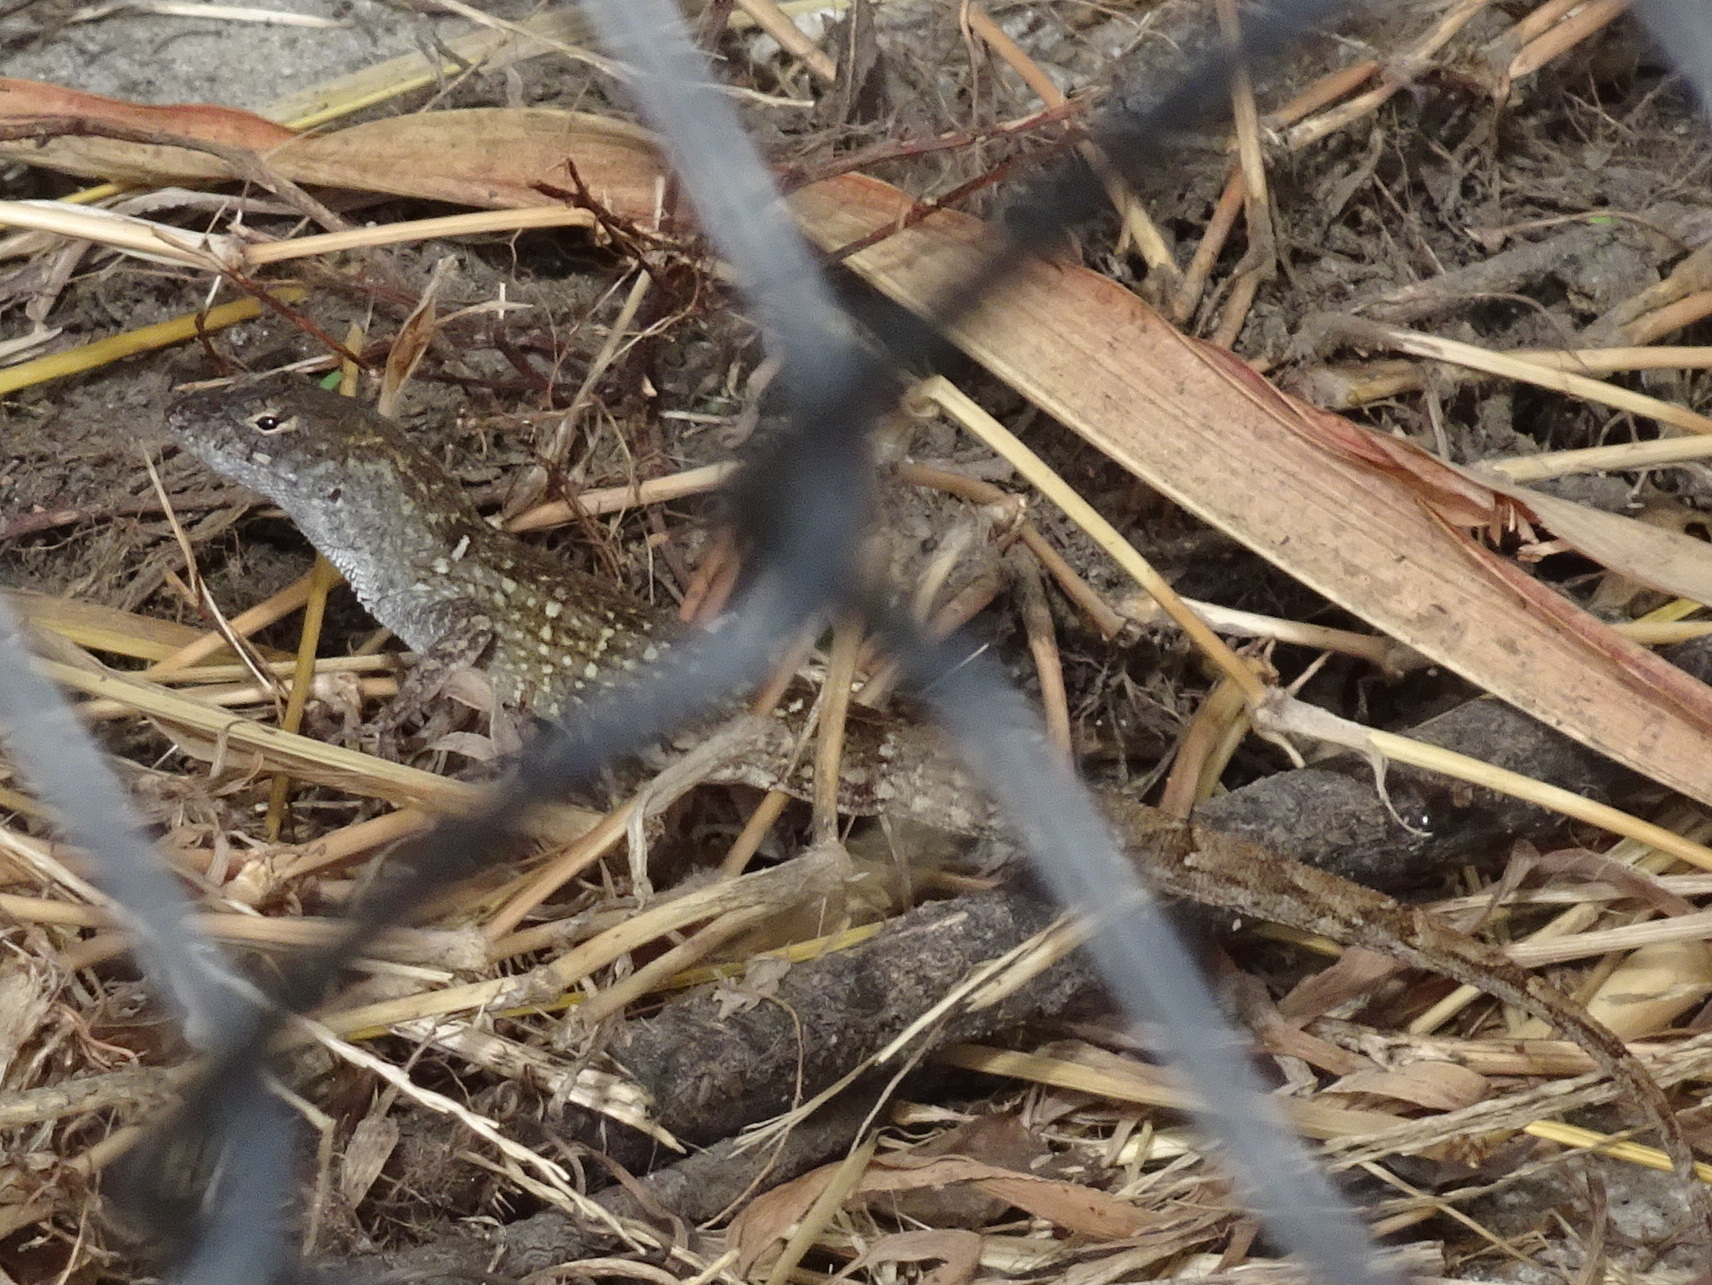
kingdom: Animalia
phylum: Chordata
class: Squamata
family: Dactyloidae
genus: Anolis
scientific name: Anolis sagrei
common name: Brown anole
